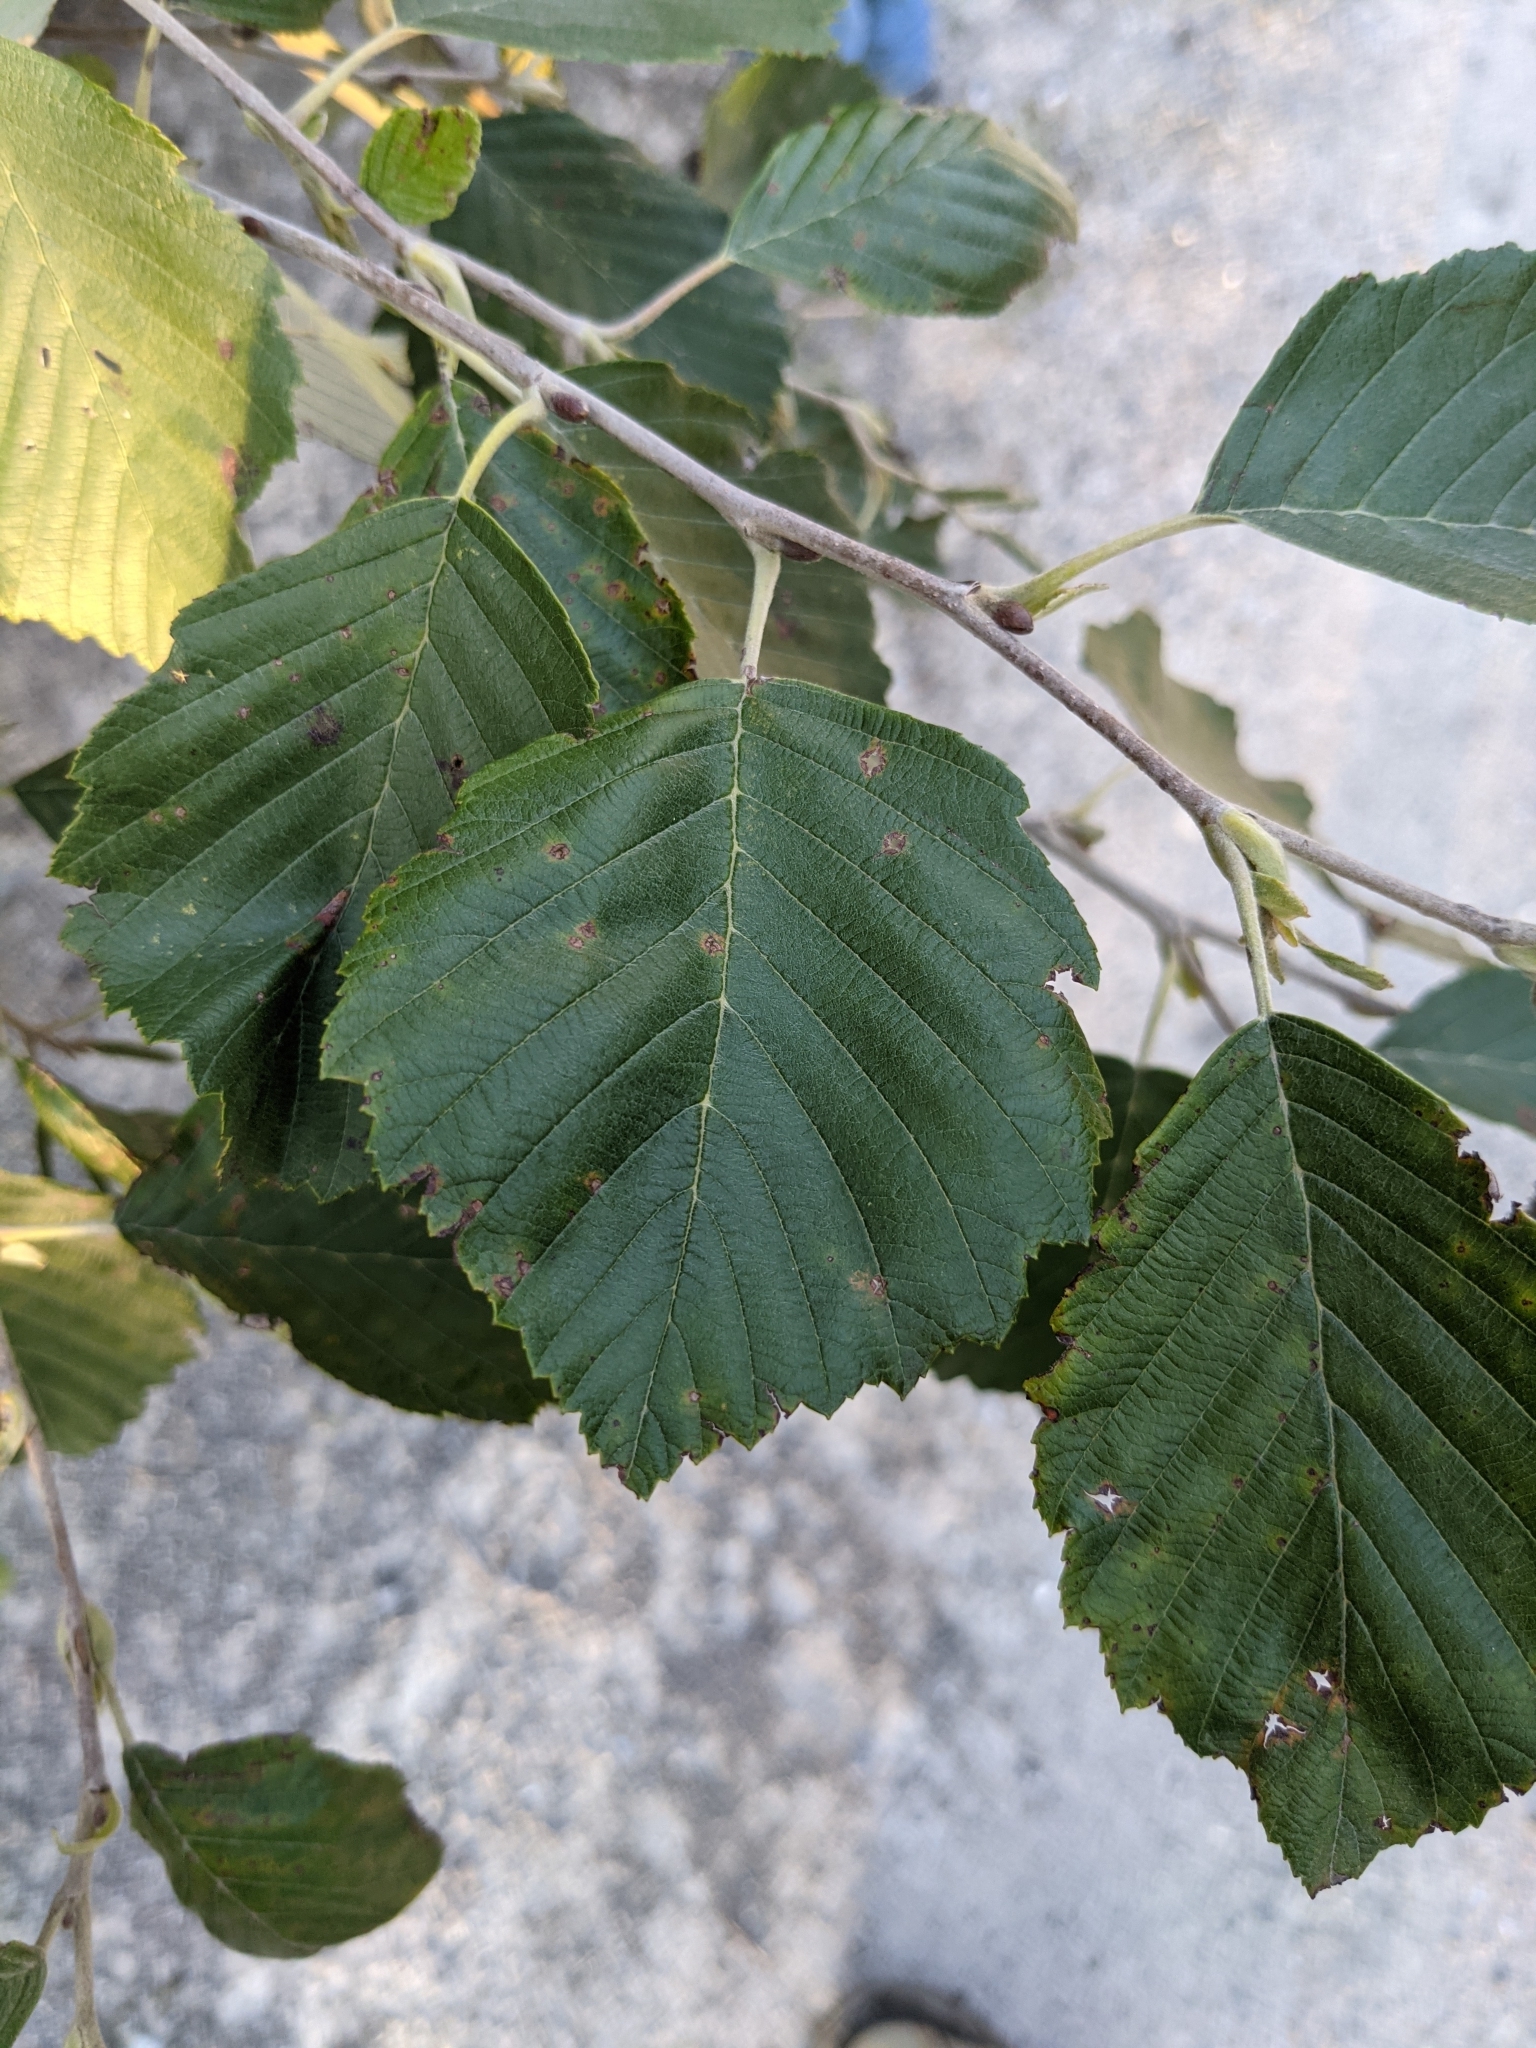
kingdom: Plantae
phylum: Tracheophyta
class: Magnoliopsida
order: Fagales
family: Betulaceae
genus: Alnus
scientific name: Alnus incana
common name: Grey alder
